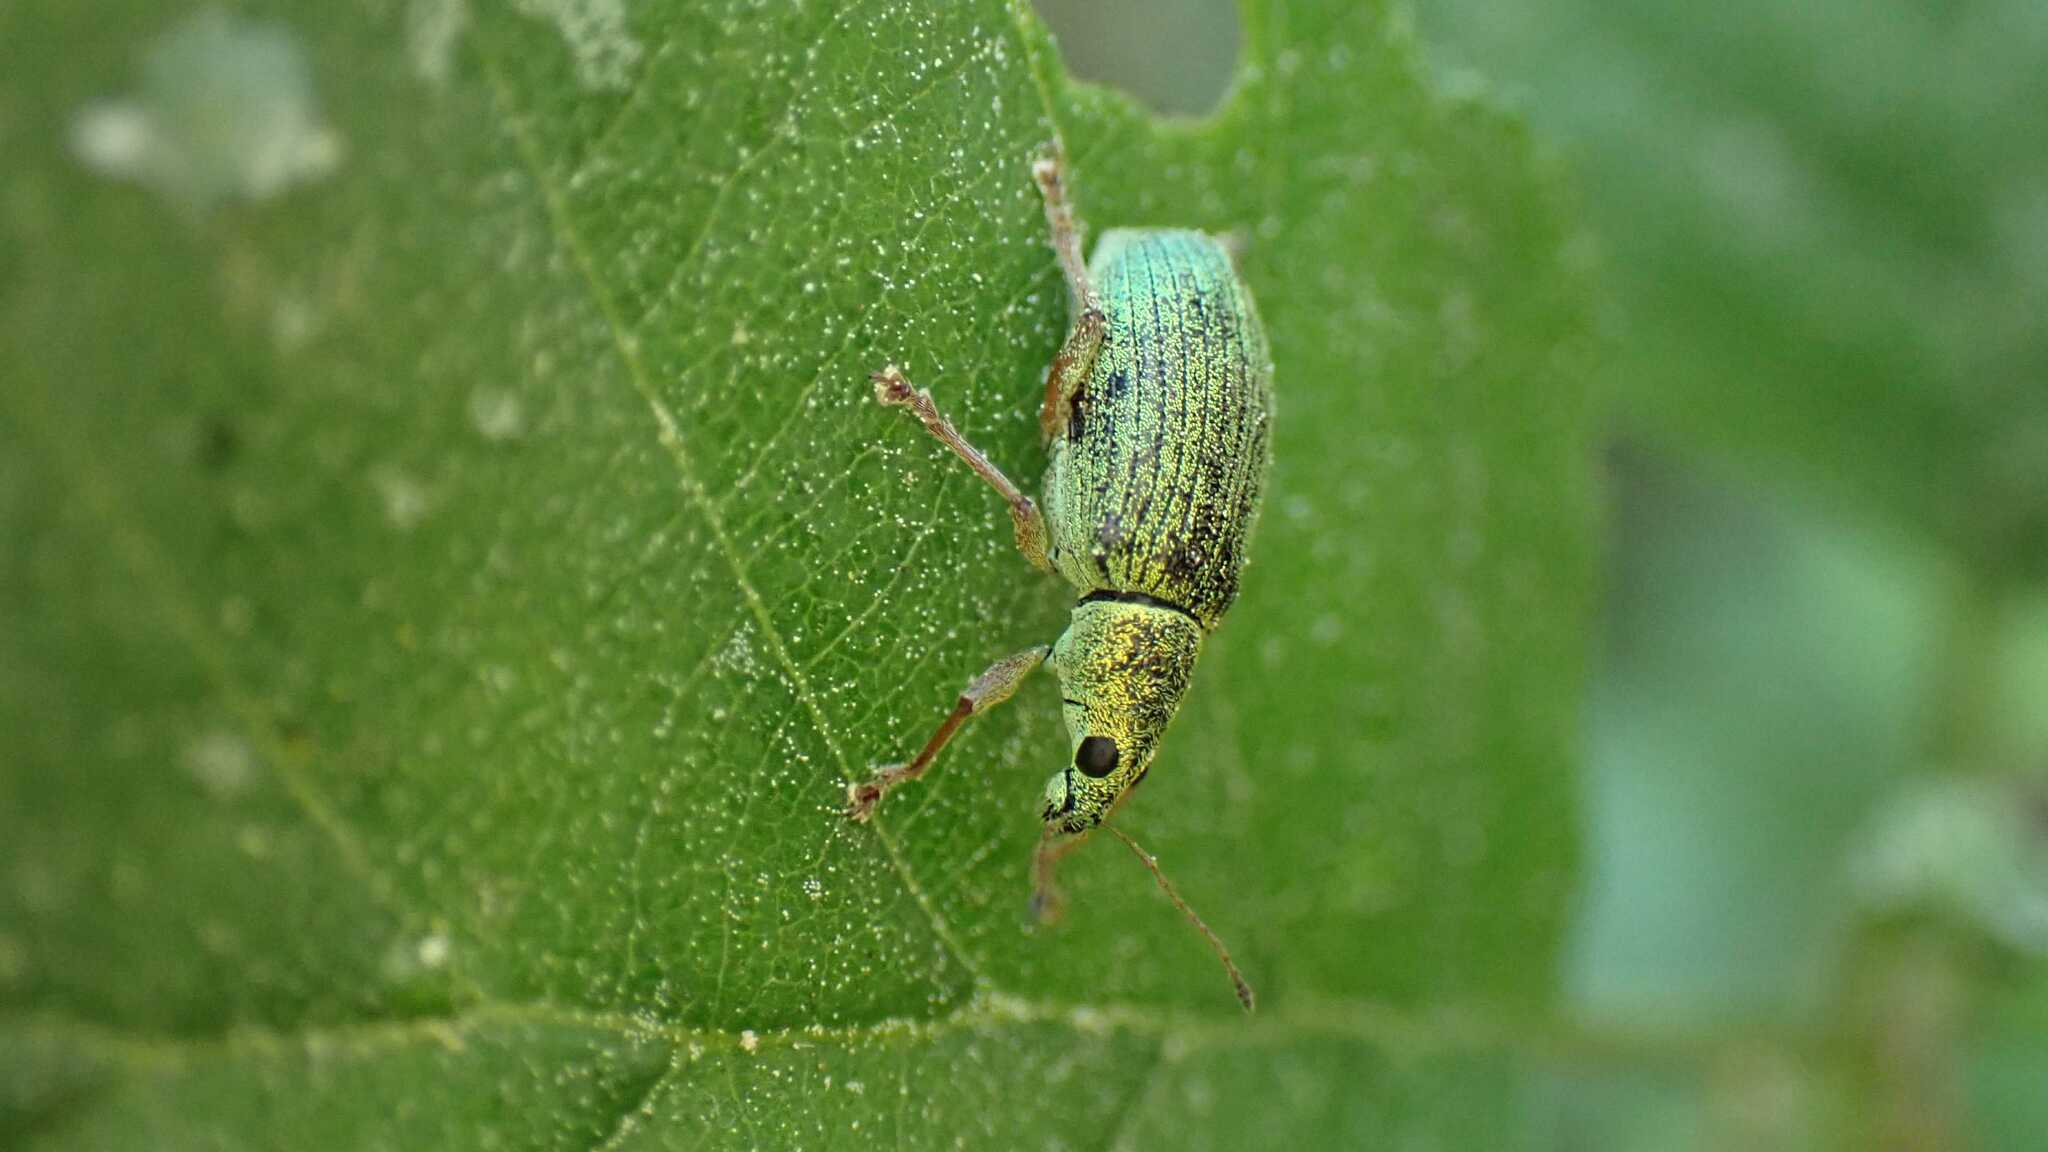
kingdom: Animalia
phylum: Arthropoda
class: Insecta
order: Coleoptera
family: Curculionidae
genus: Polydrusus
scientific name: Polydrusus formosus
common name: Weevil
